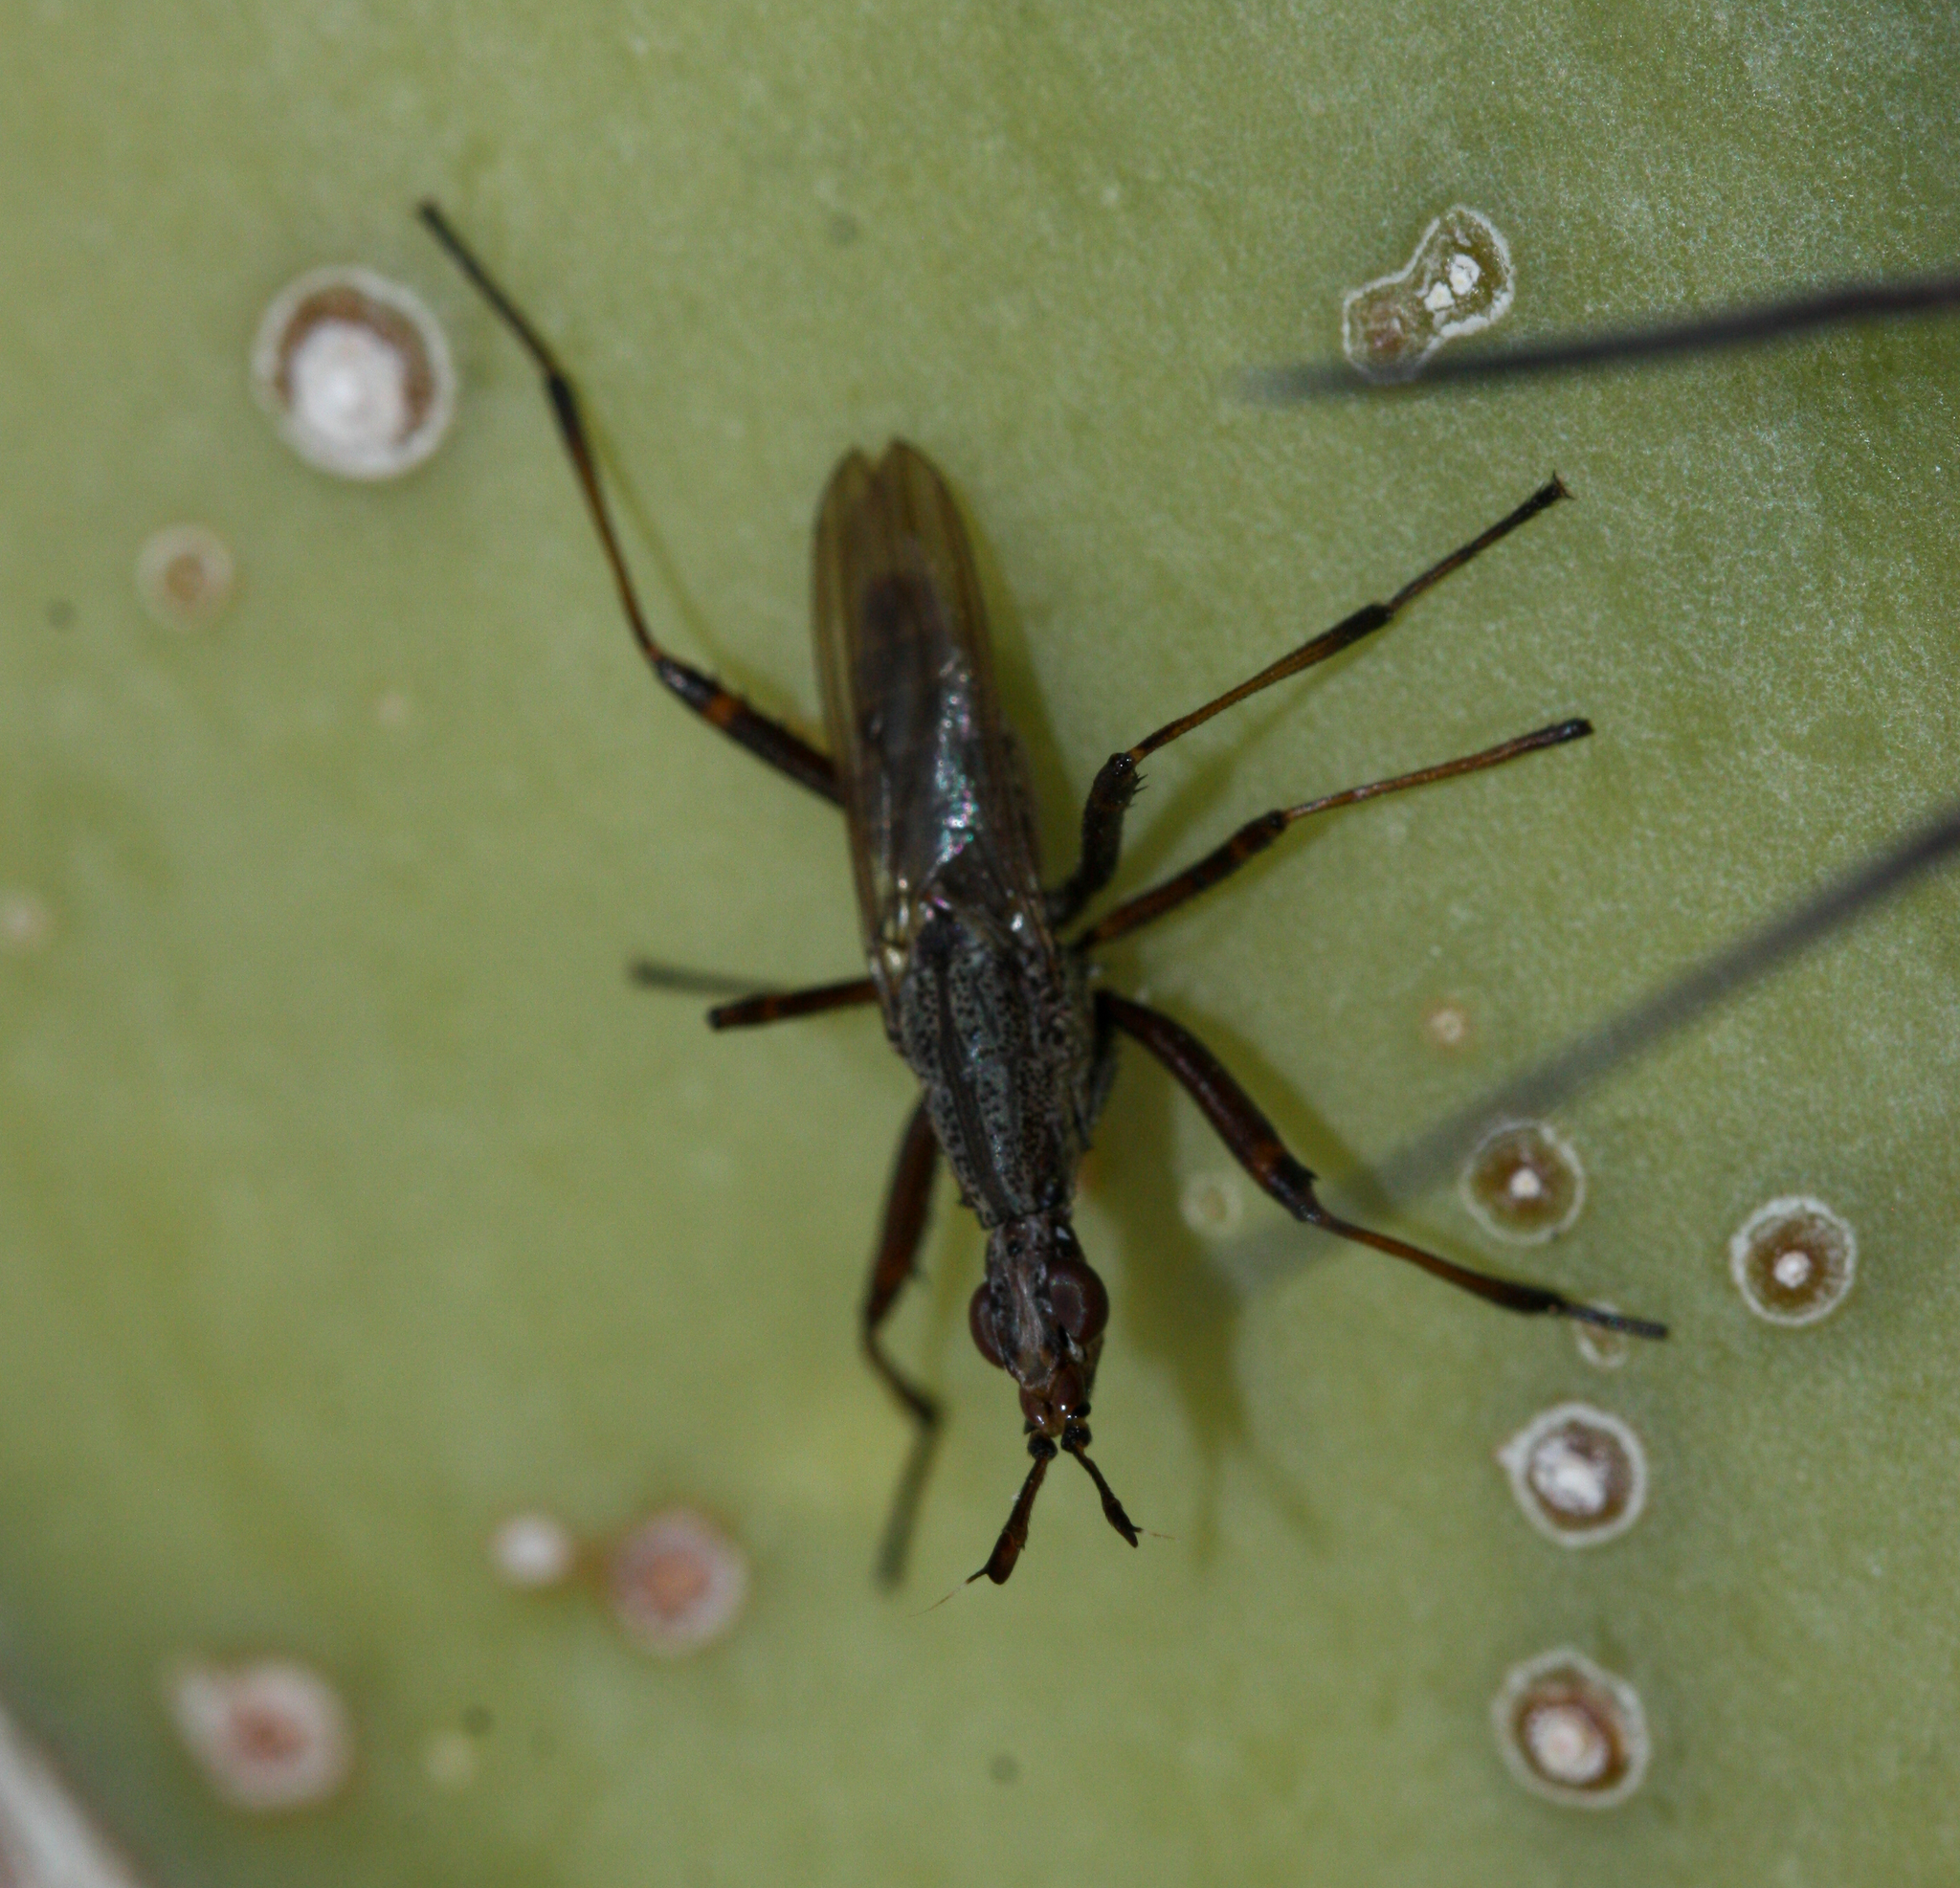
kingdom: Animalia
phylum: Arthropoda
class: Insecta
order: Diptera
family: Neriidae
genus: Odontoloxozus
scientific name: Odontoloxozus longicornis
